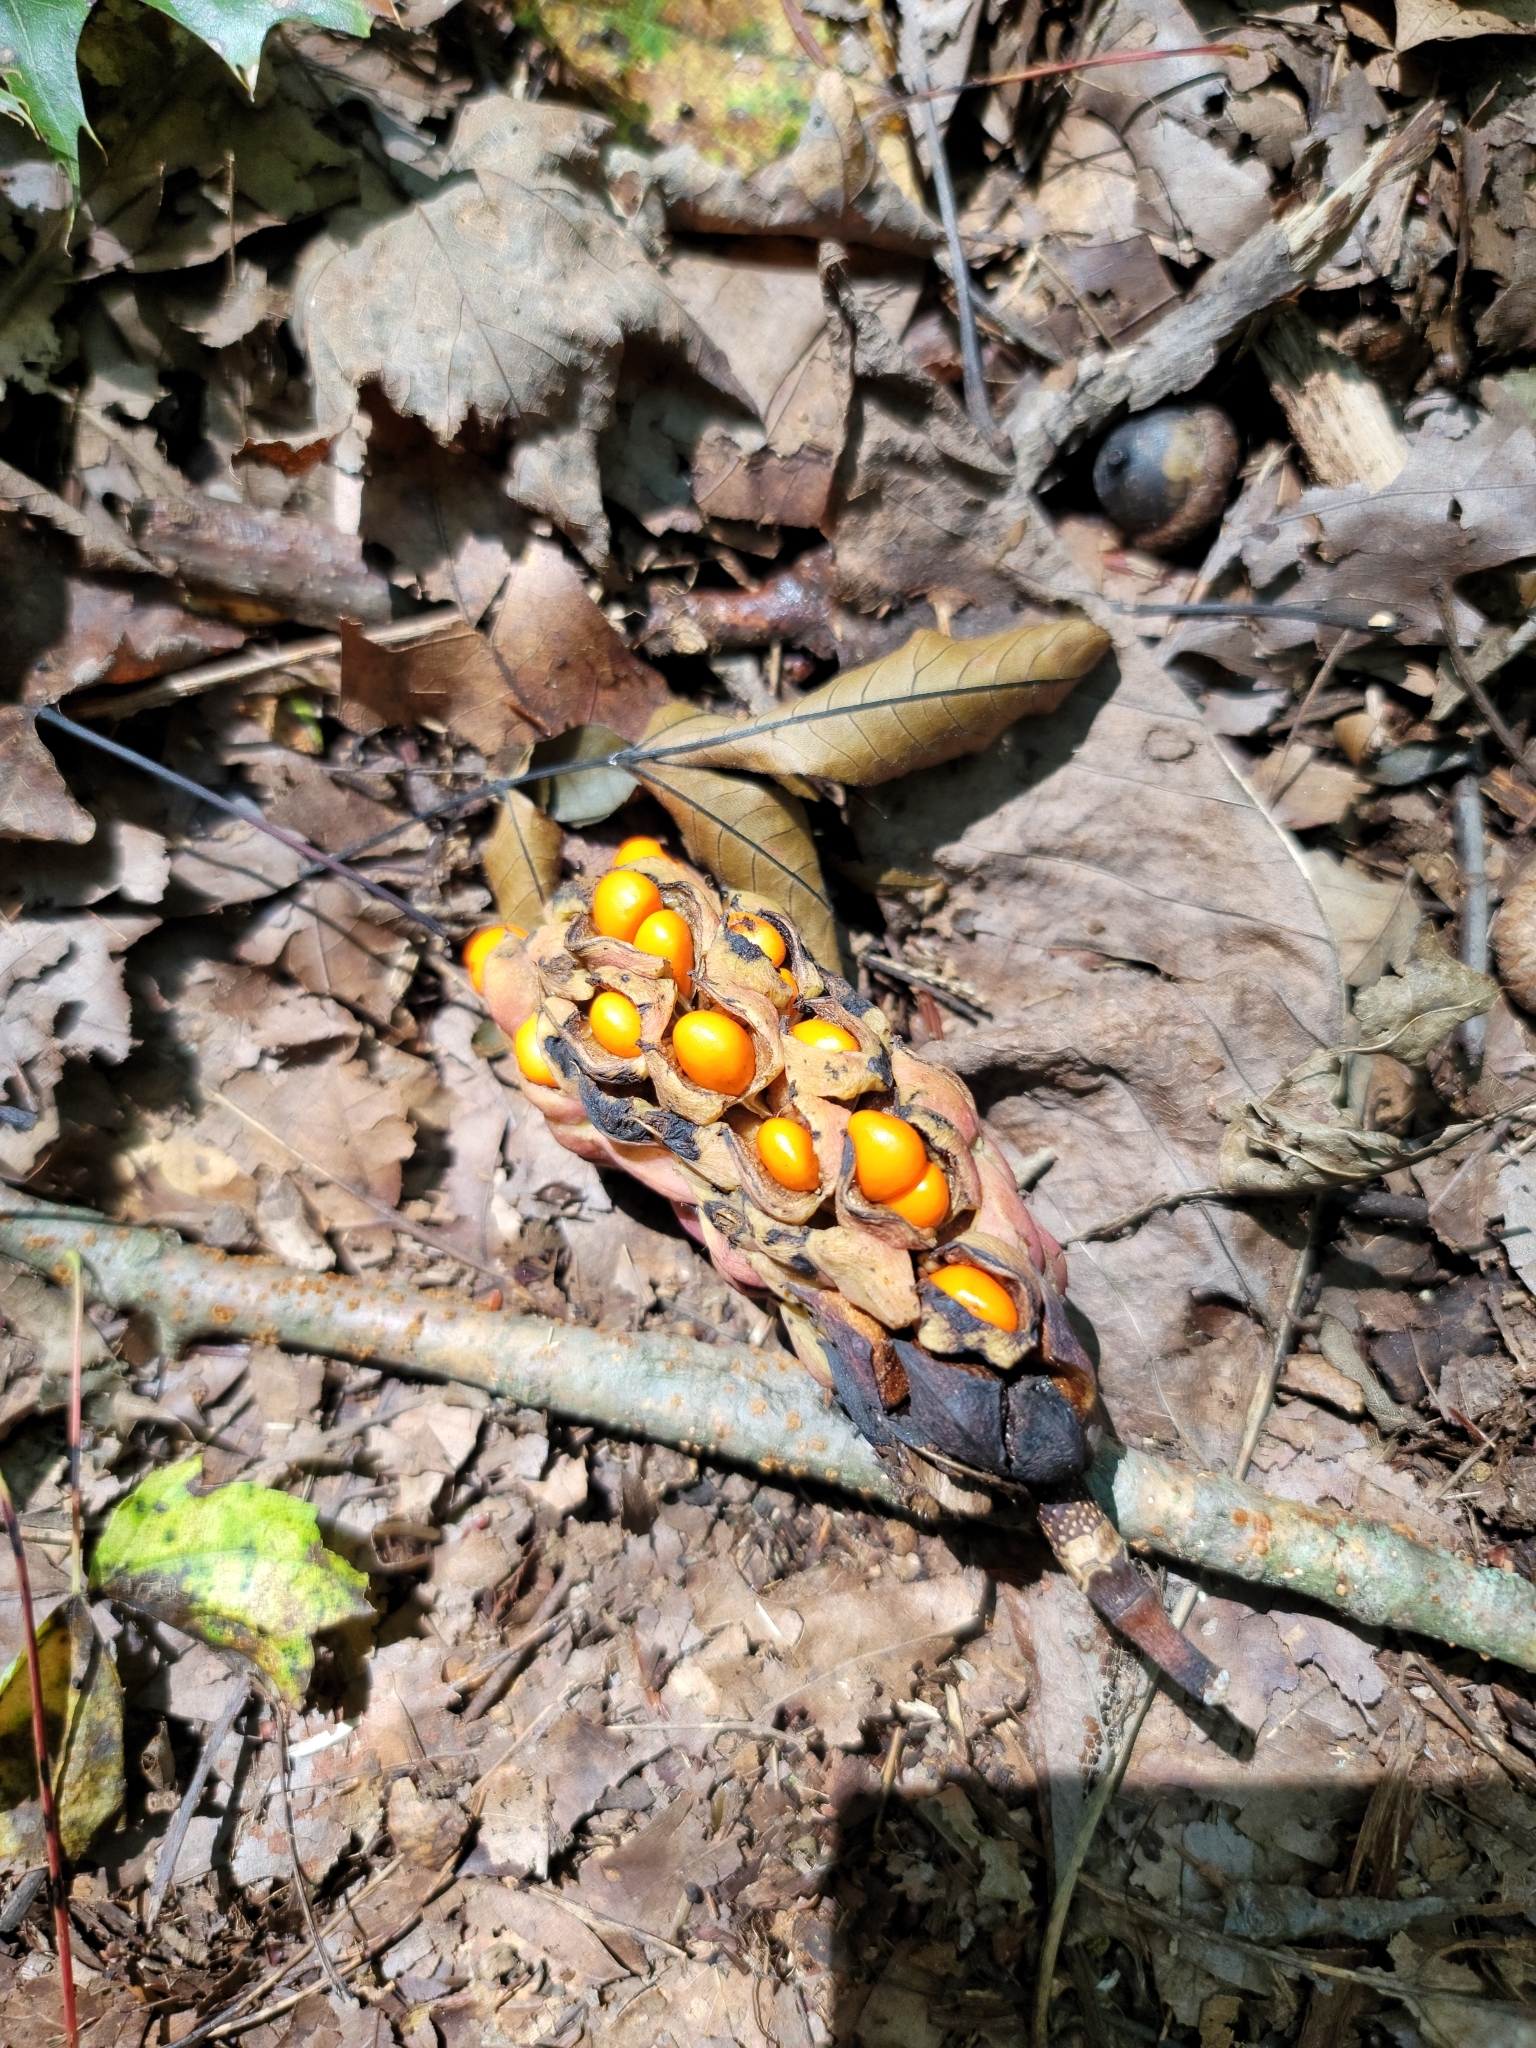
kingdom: Plantae
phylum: Tracheophyta
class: Magnoliopsida
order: Magnoliales
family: Magnoliaceae
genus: Magnolia
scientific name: Magnolia acuminata
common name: Cucumber magnolia
